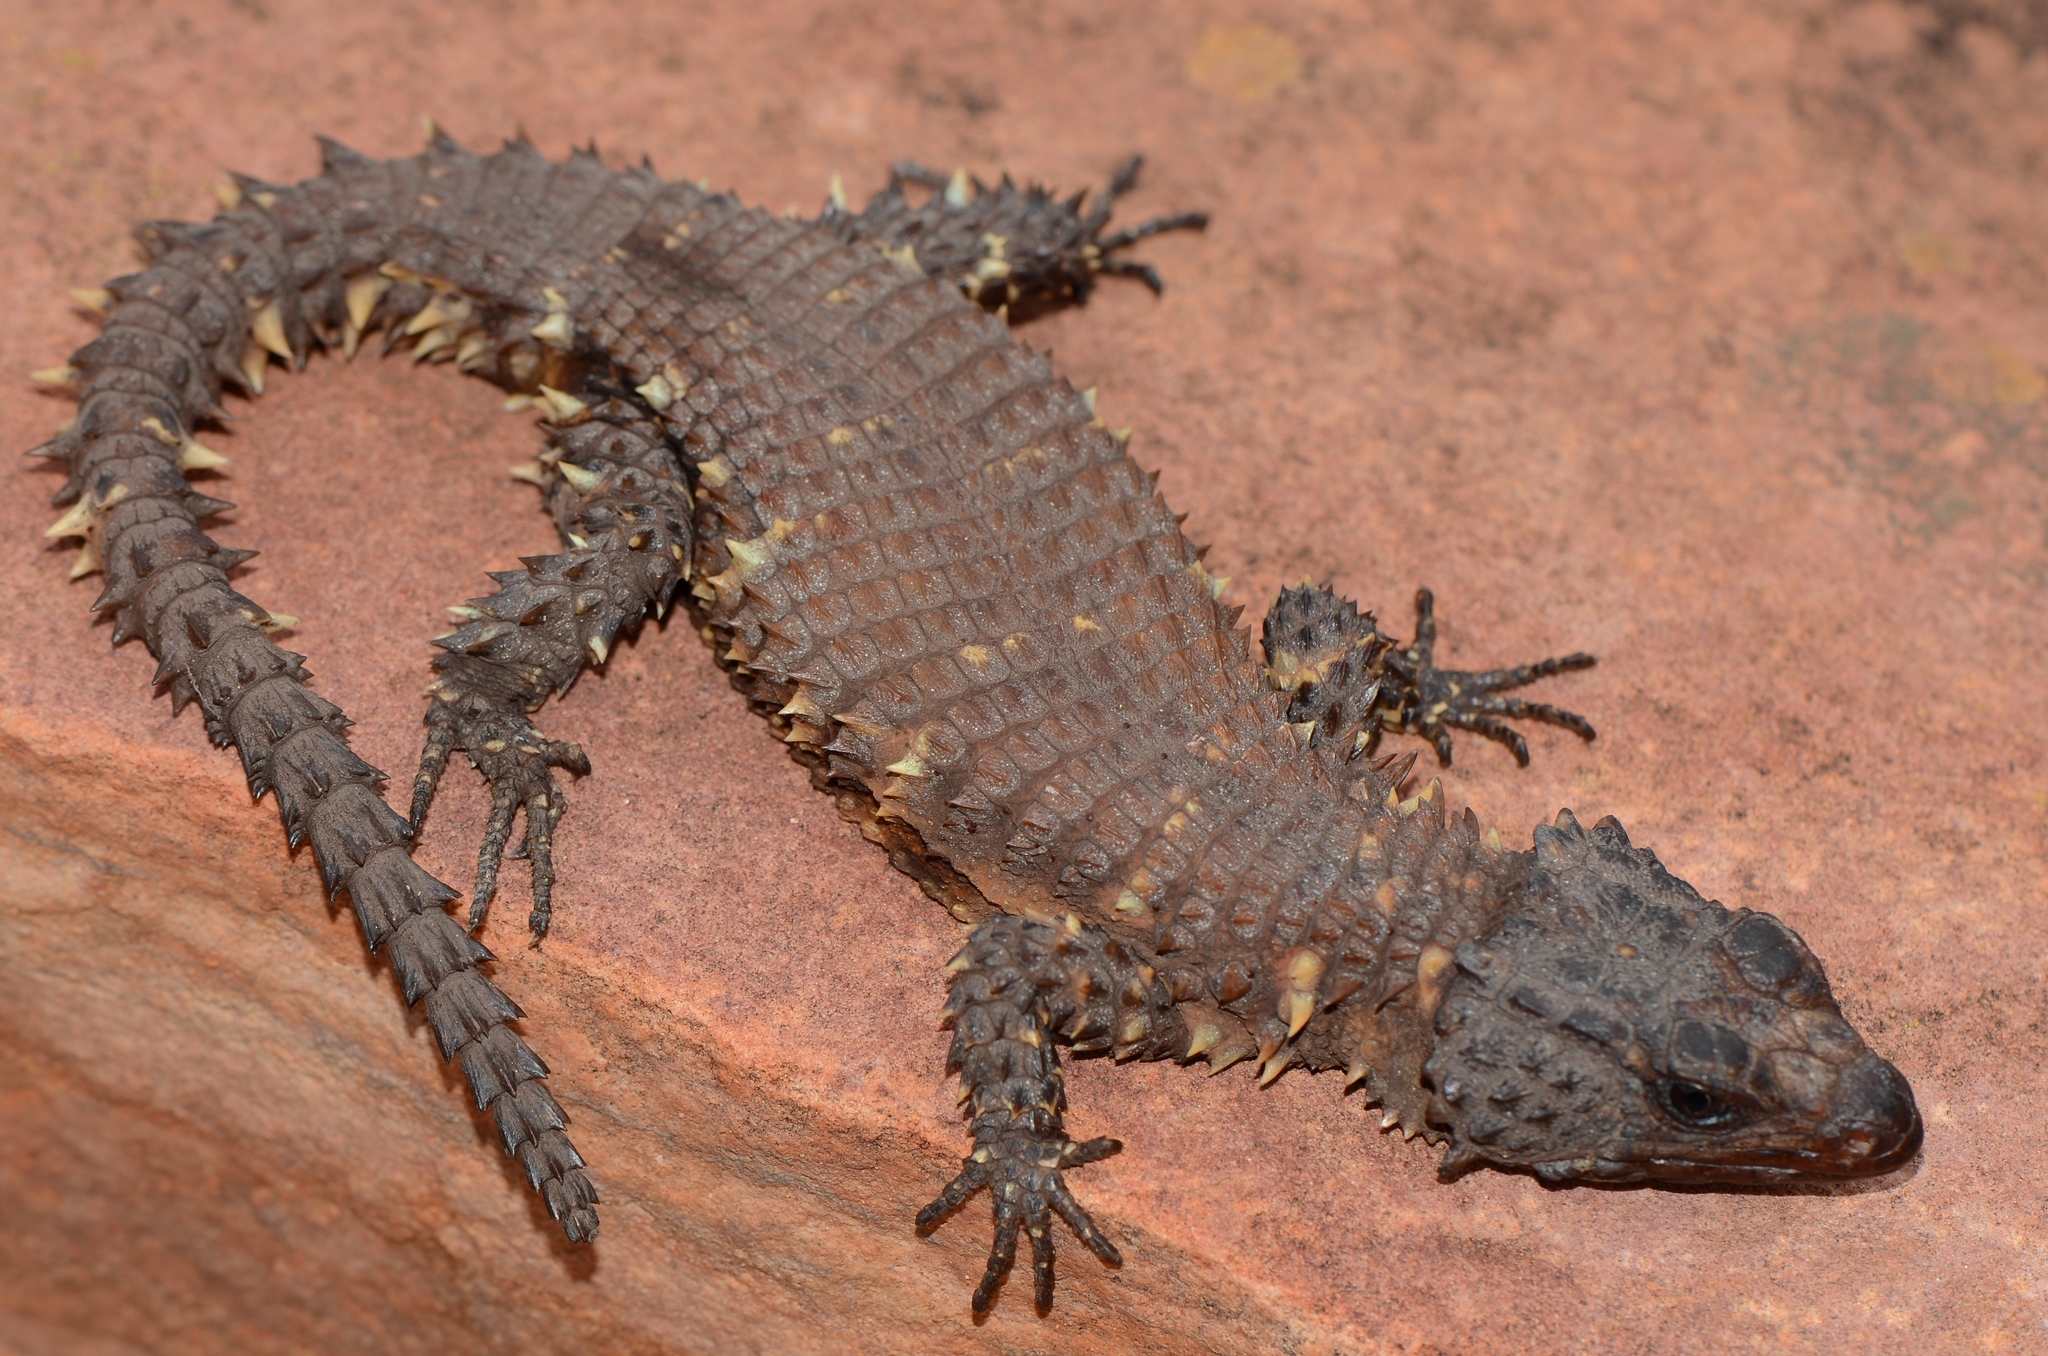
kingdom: Animalia
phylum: Chordata
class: Squamata
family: Cordylidae
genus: Smaug
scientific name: Smaug breyeri
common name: Waterberg dragon lizard
